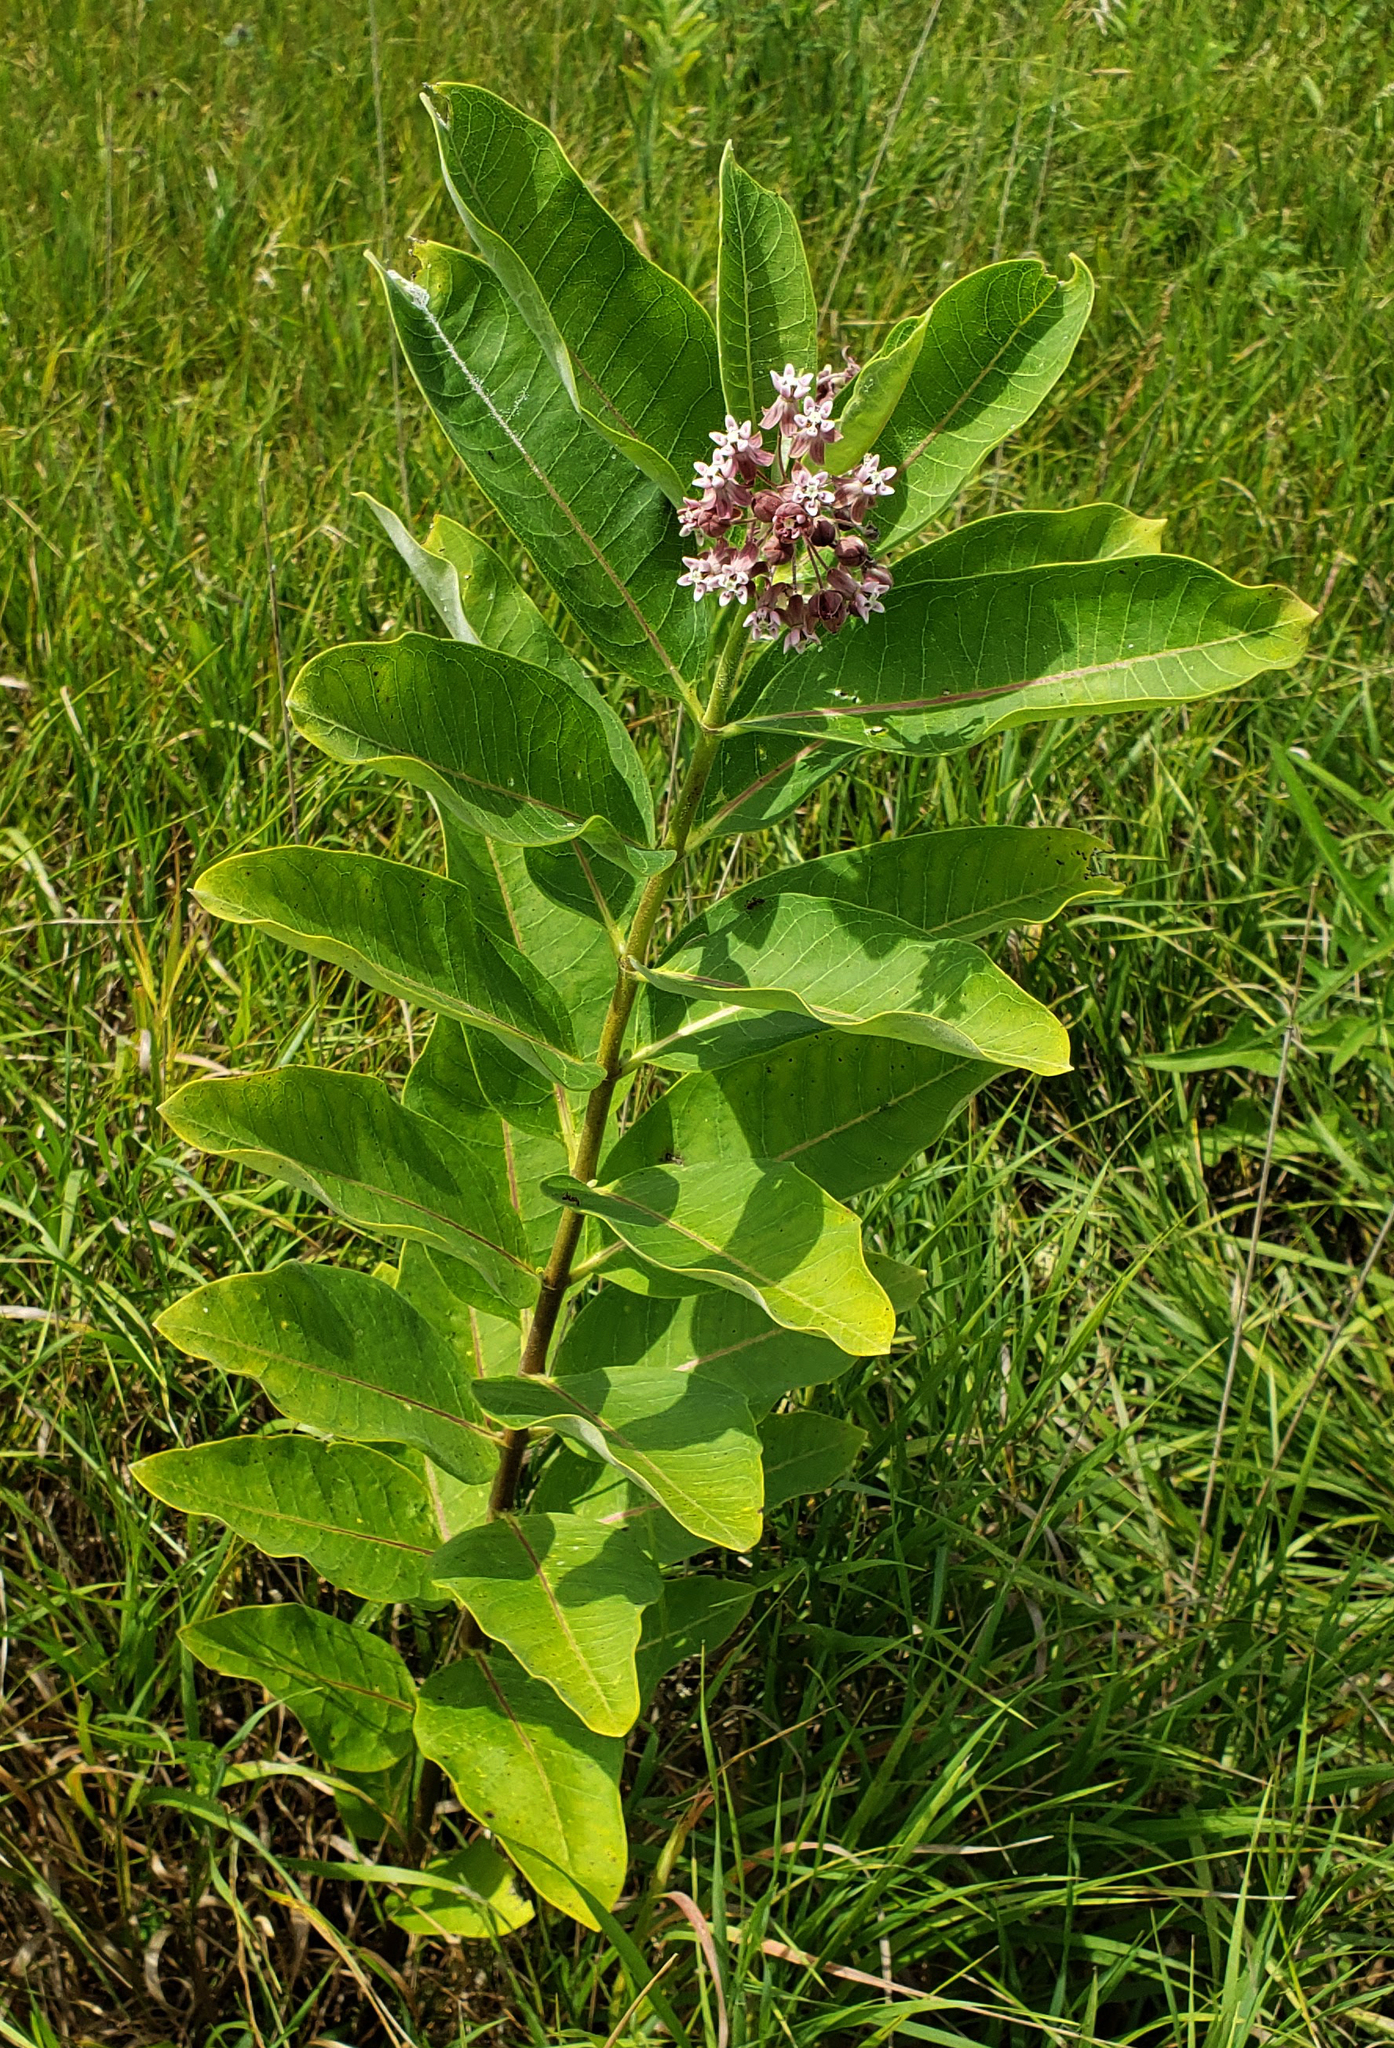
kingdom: Plantae
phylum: Tracheophyta
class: Magnoliopsida
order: Gentianales
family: Apocynaceae
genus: Asclepias
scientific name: Asclepias syriaca
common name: Common milkweed
